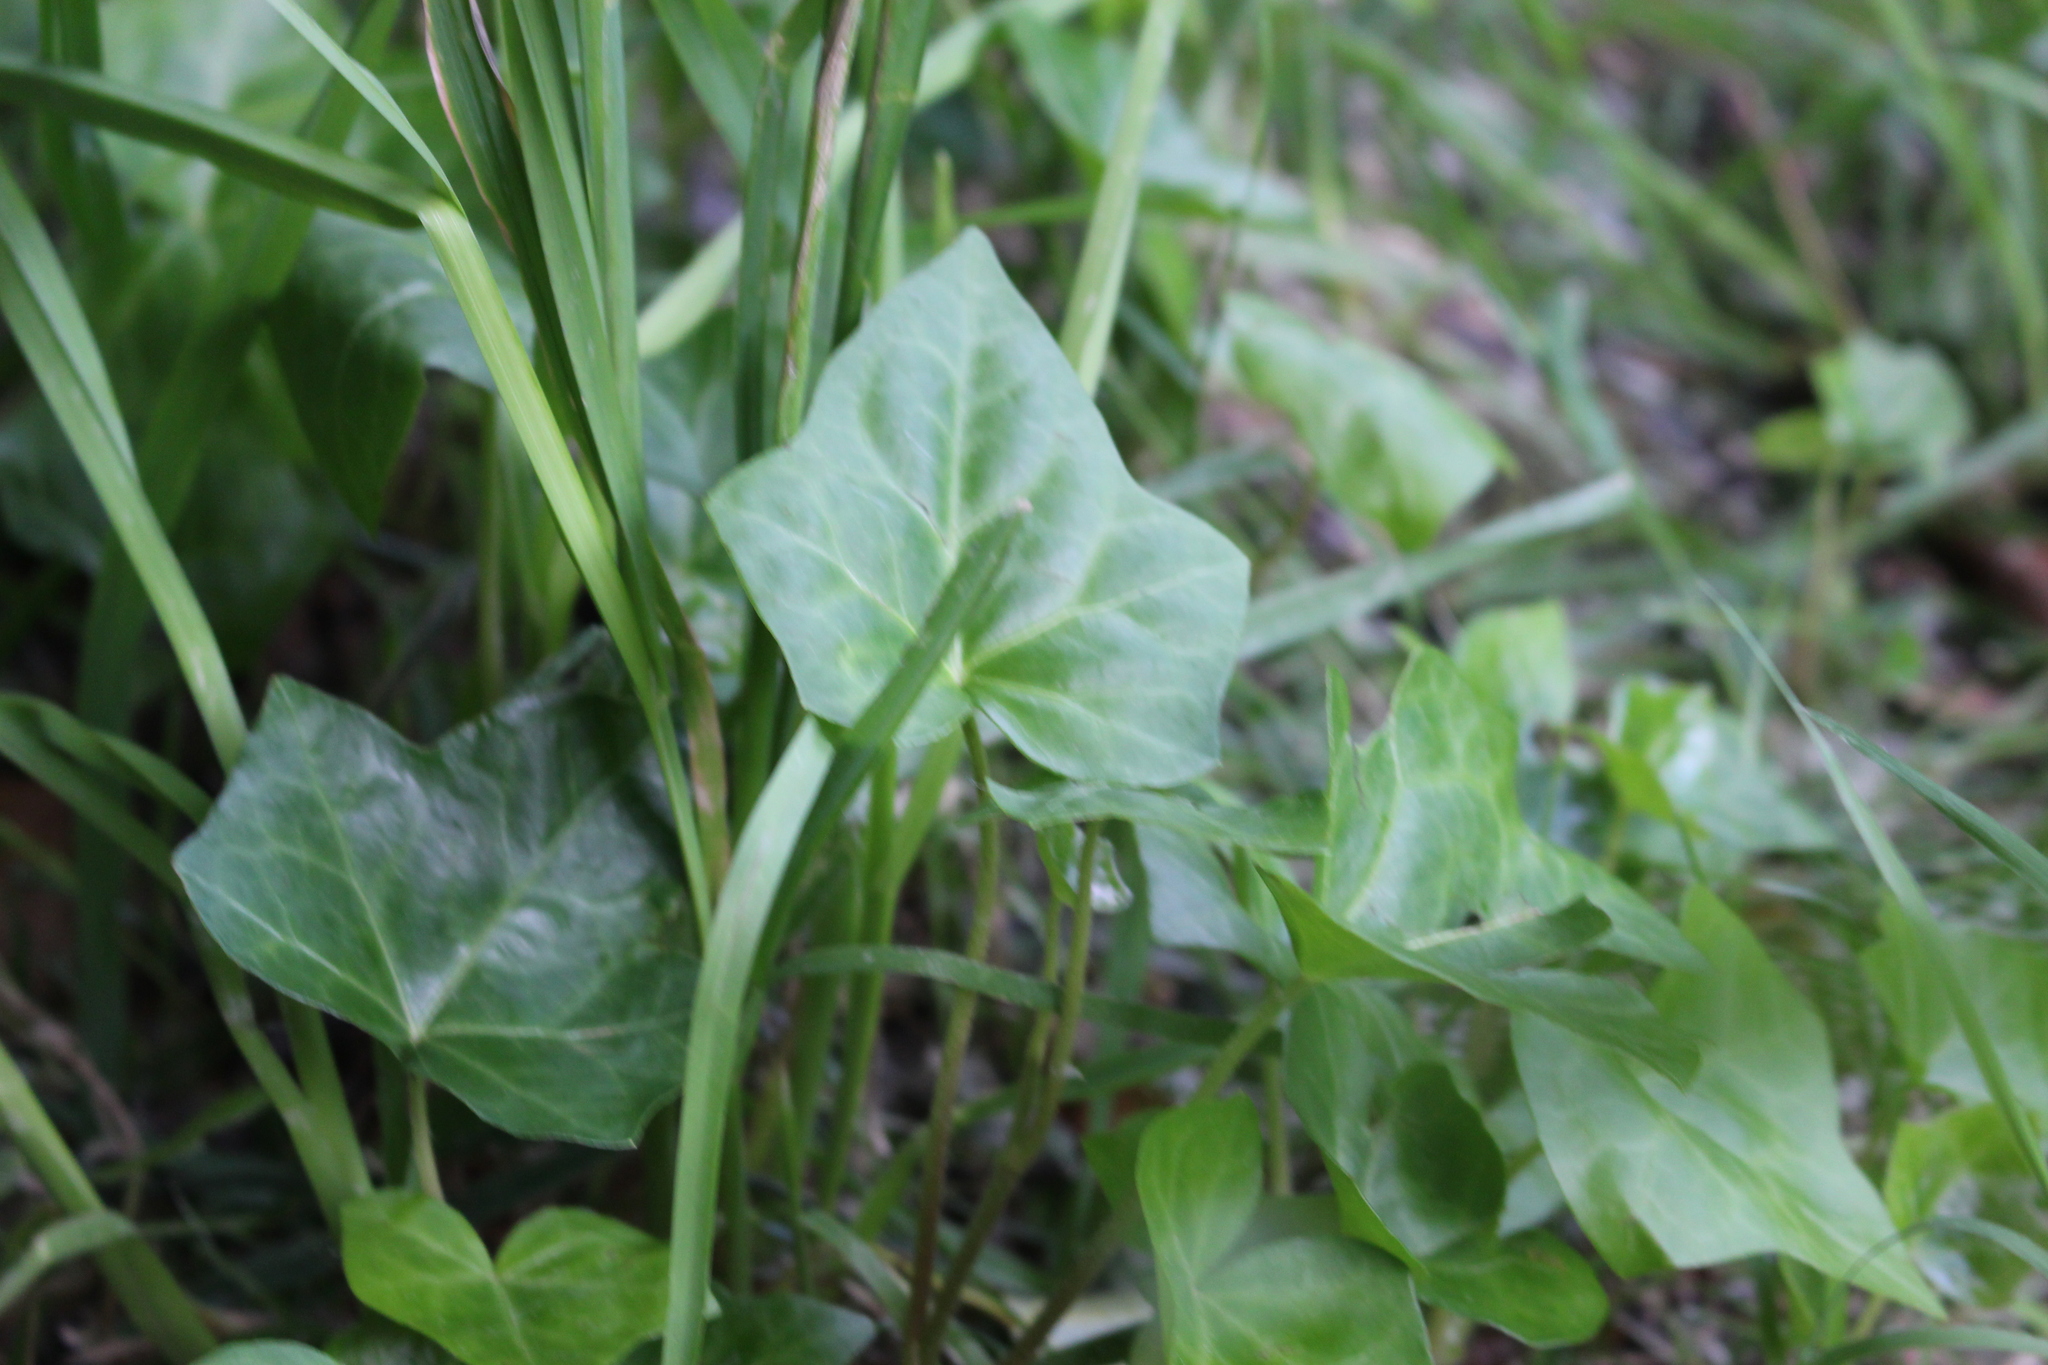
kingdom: Plantae
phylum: Tracheophyta
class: Magnoliopsida
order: Apiales
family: Araliaceae
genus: Hedera
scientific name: Hedera helix
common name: Ivy
